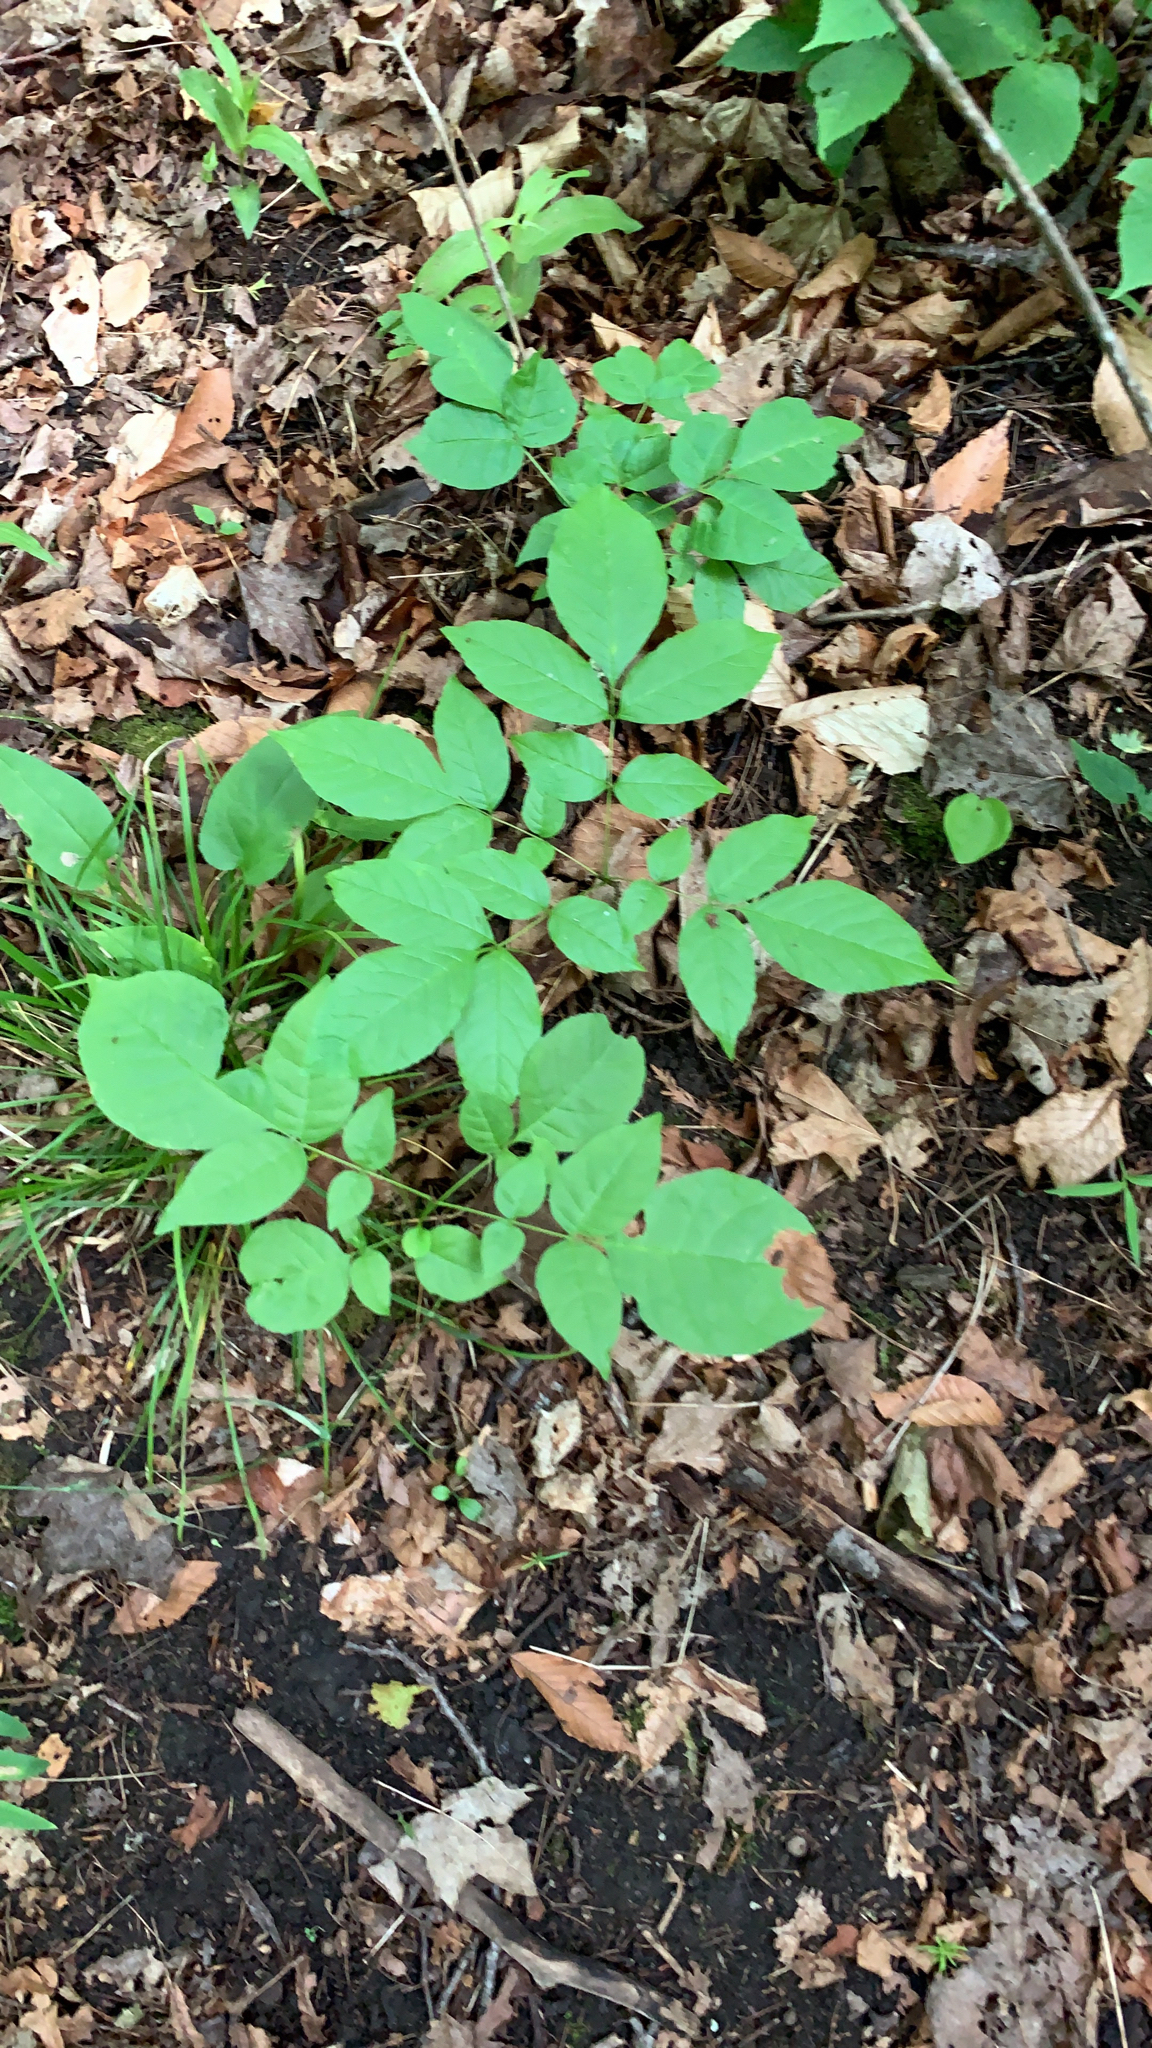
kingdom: Plantae
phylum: Tracheophyta
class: Magnoliopsida
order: Apiales
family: Araliaceae
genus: Aralia
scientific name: Aralia nudicaulis
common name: Wild sarsaparilla
